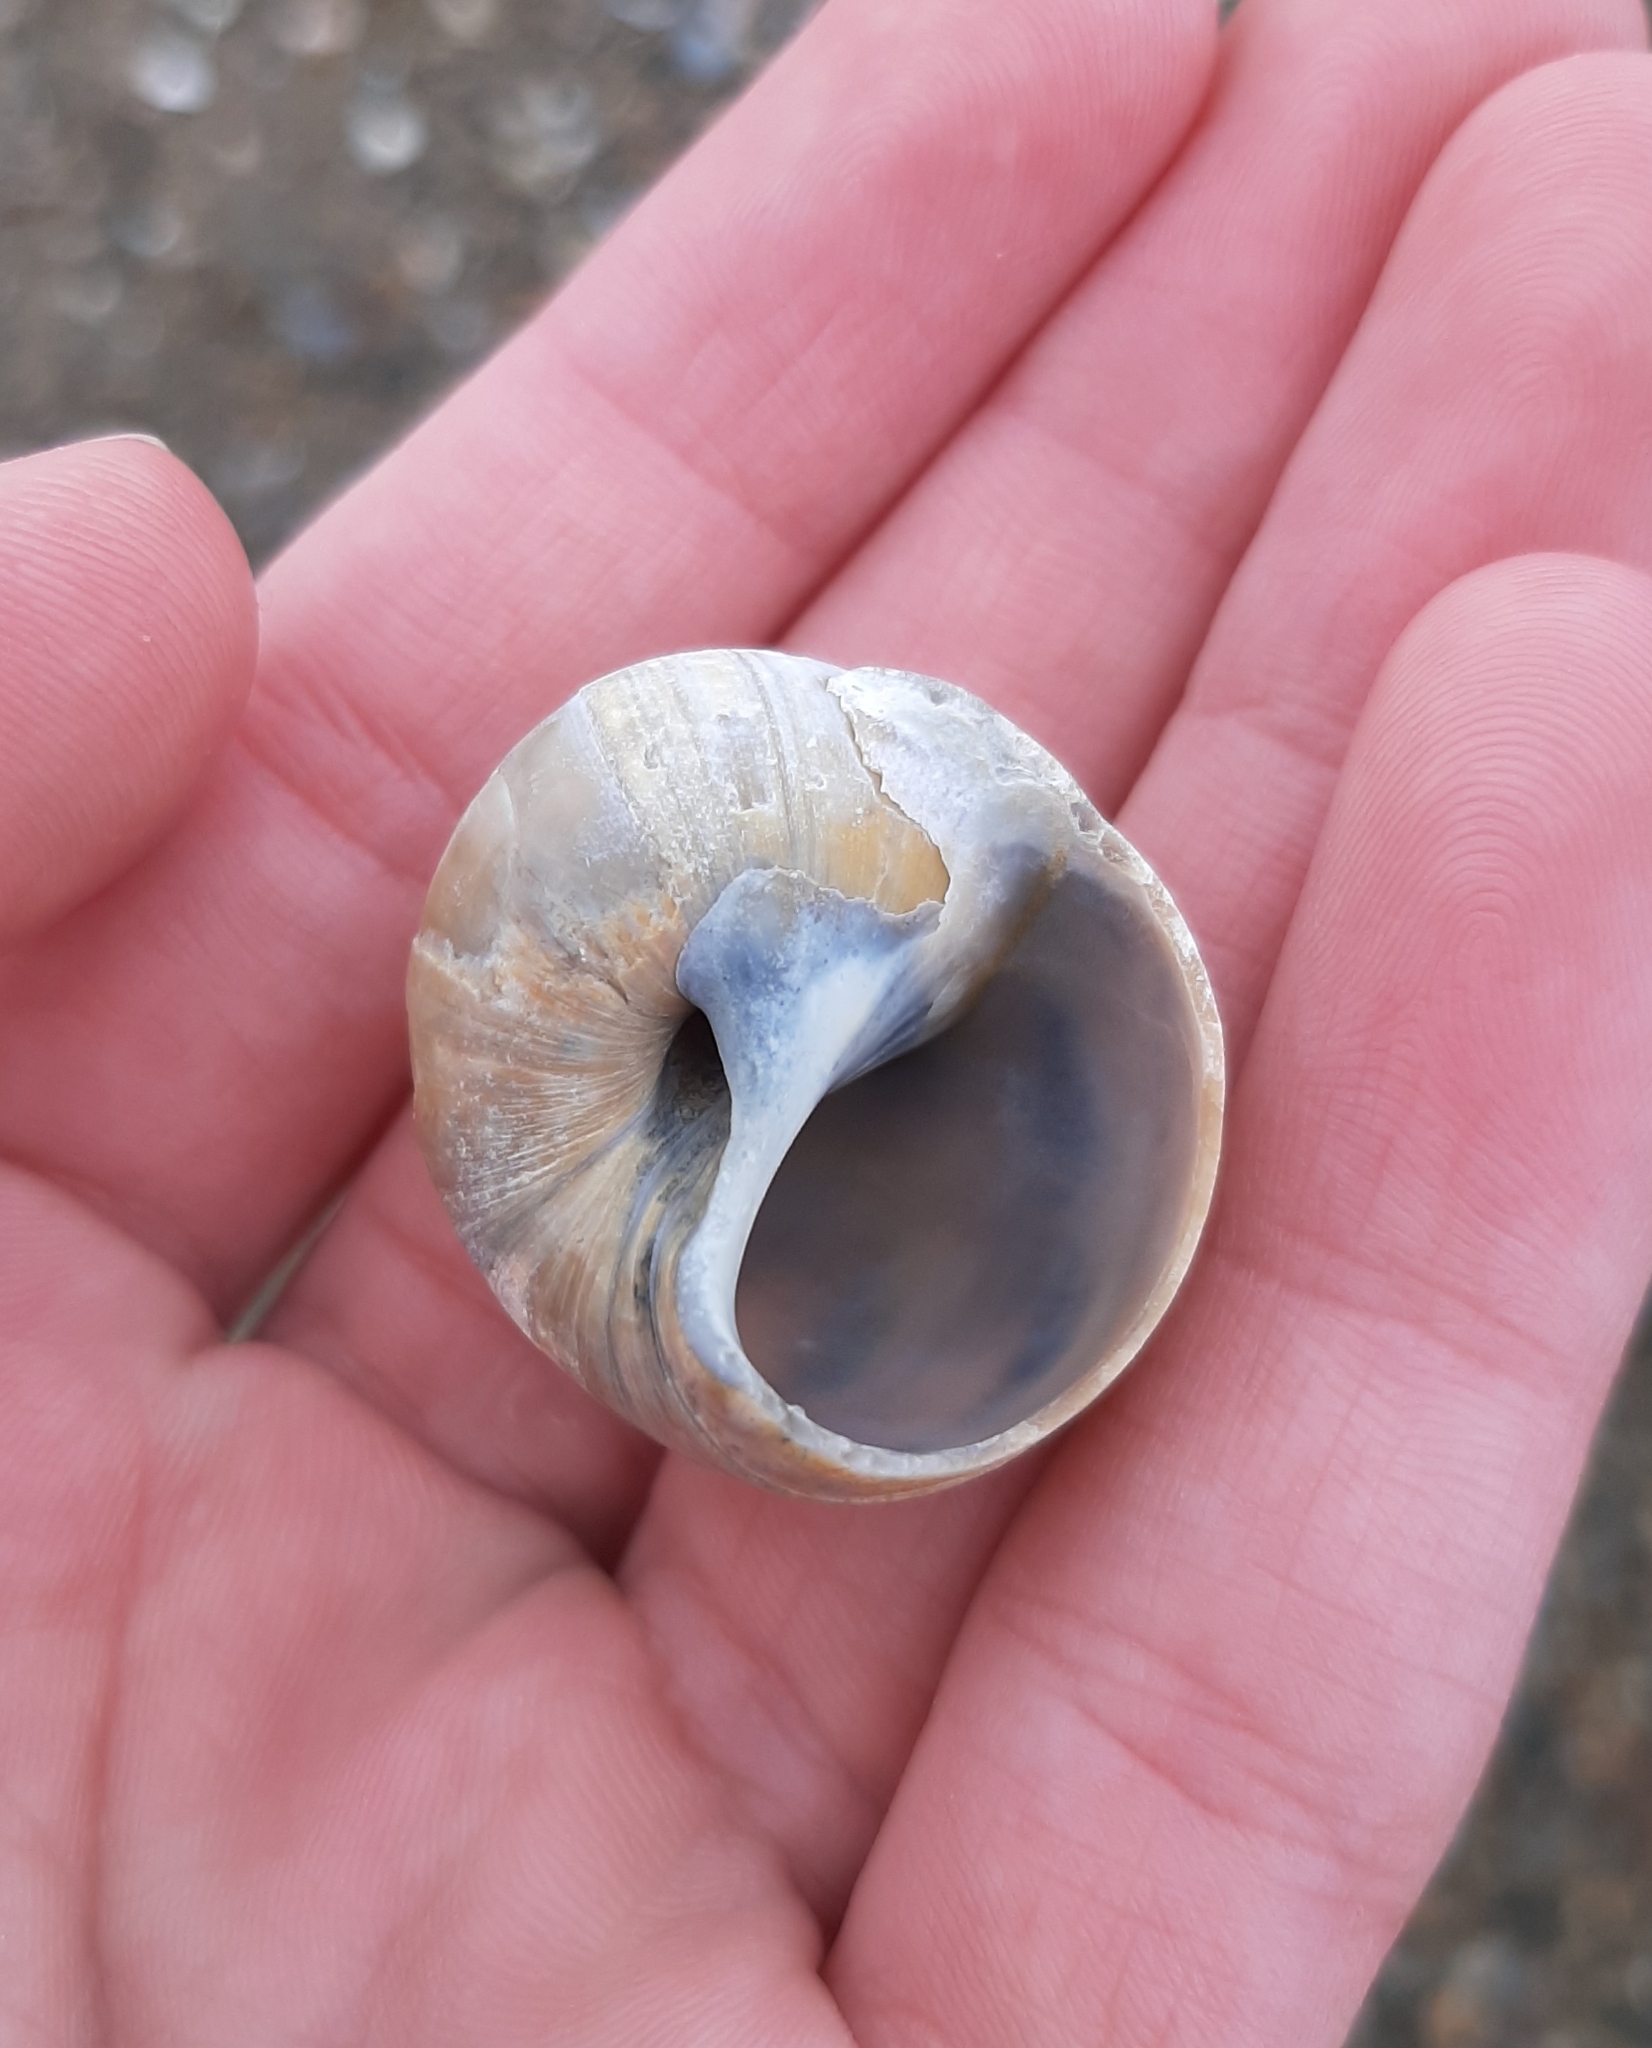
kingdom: Animalia
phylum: Mollusca
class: Gastropoda
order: Littorinimorpha
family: Naticidae
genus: Euspira
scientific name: Euspira heros
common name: Common northern moonsnail
